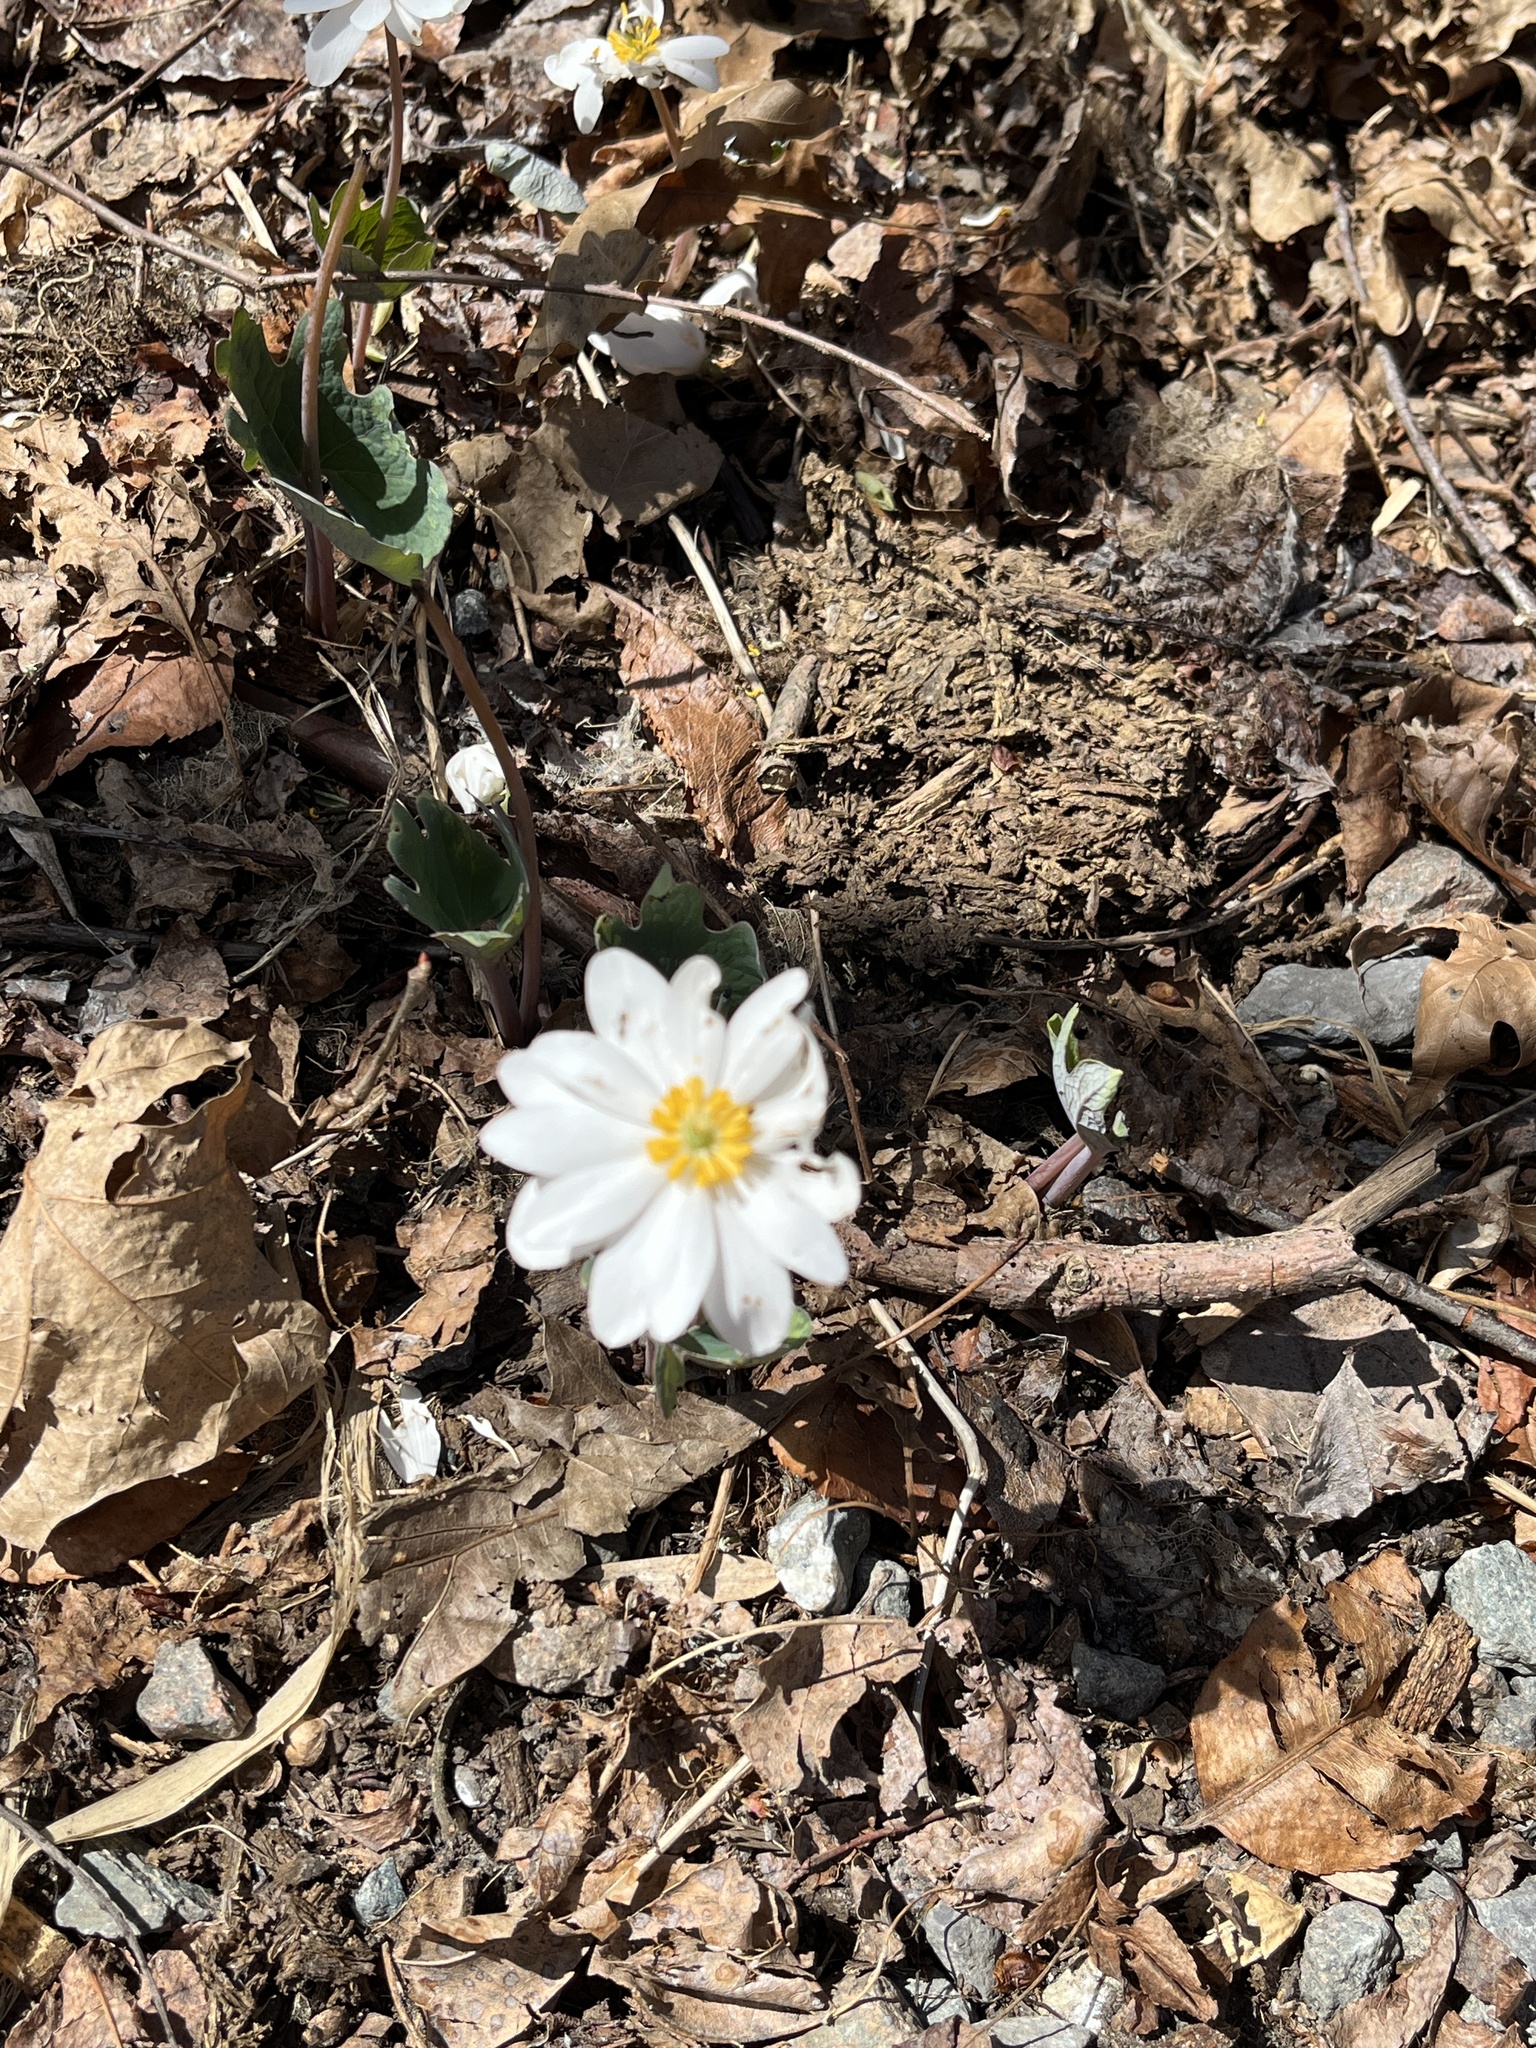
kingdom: Plantae
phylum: Tracheophyta
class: Magnoliopsida
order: Ranunculales
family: Papaveraceae
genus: Sanguinaria
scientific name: Sanguinaria canadensis
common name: Bloodroot
